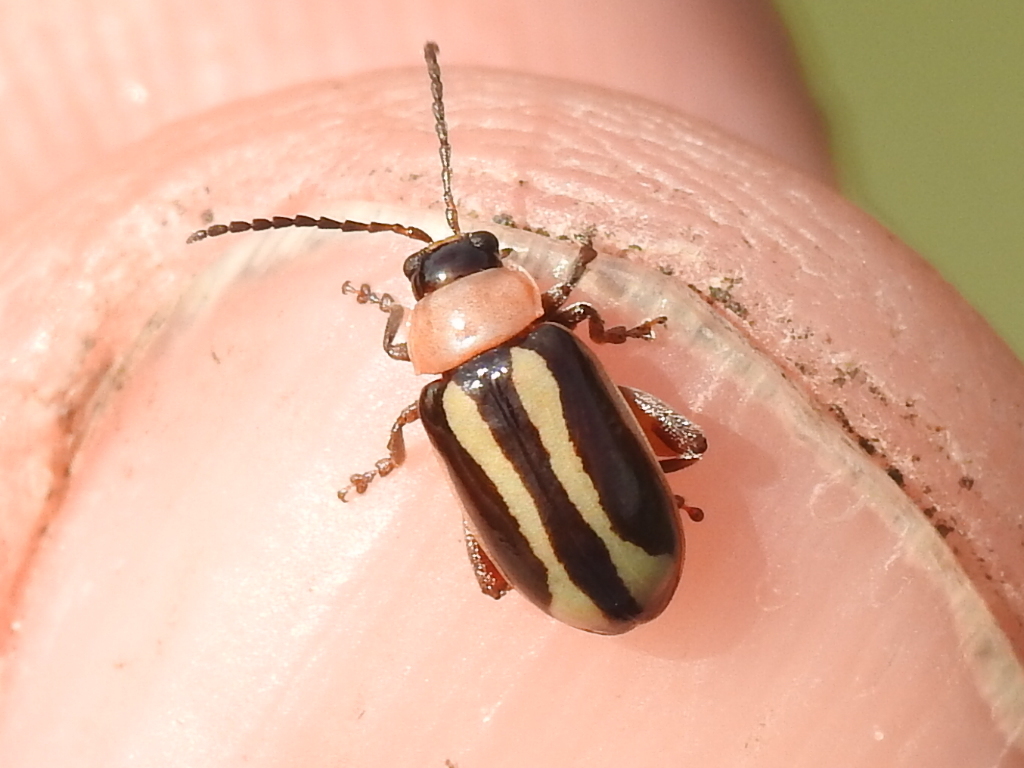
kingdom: Animalia
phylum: Arthropoda
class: Insecta
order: Coleoptera
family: Chrysomelidae
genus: Kuschelina
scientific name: Kuschelina laeta
